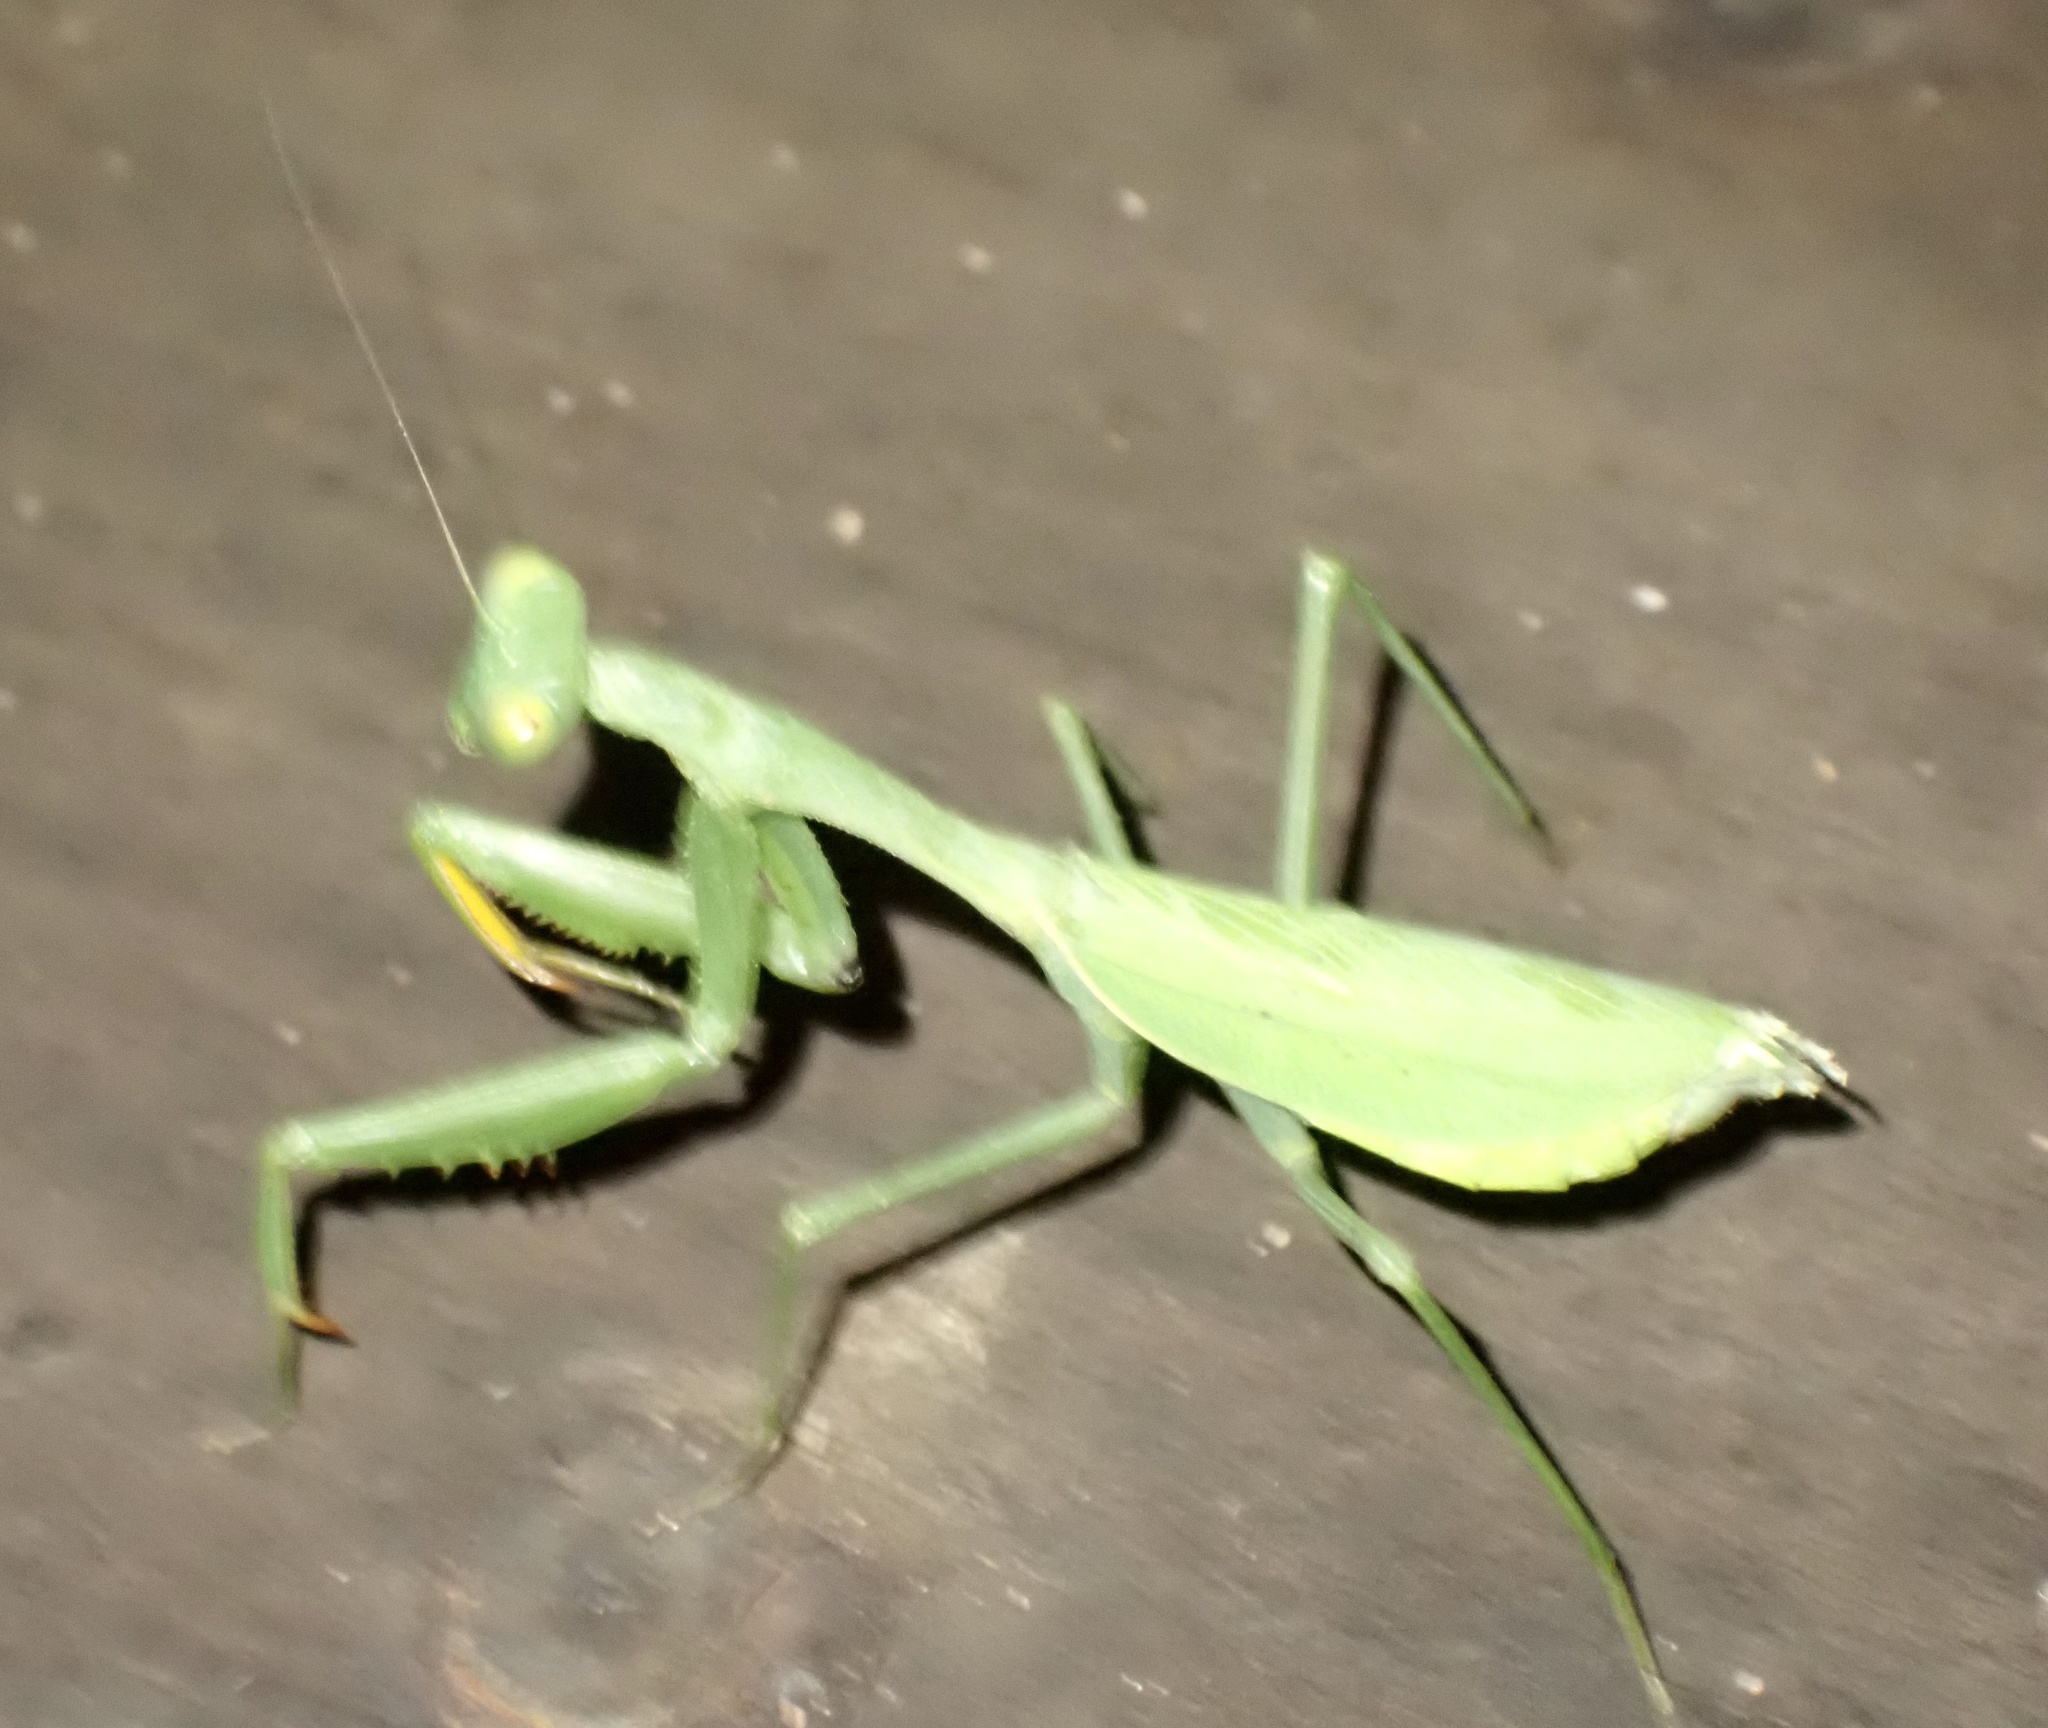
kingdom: Animalia
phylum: Arthropoda
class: Insecta
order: Mantodea
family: Miomantidae
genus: Miomantis
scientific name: Miomantis caffra
